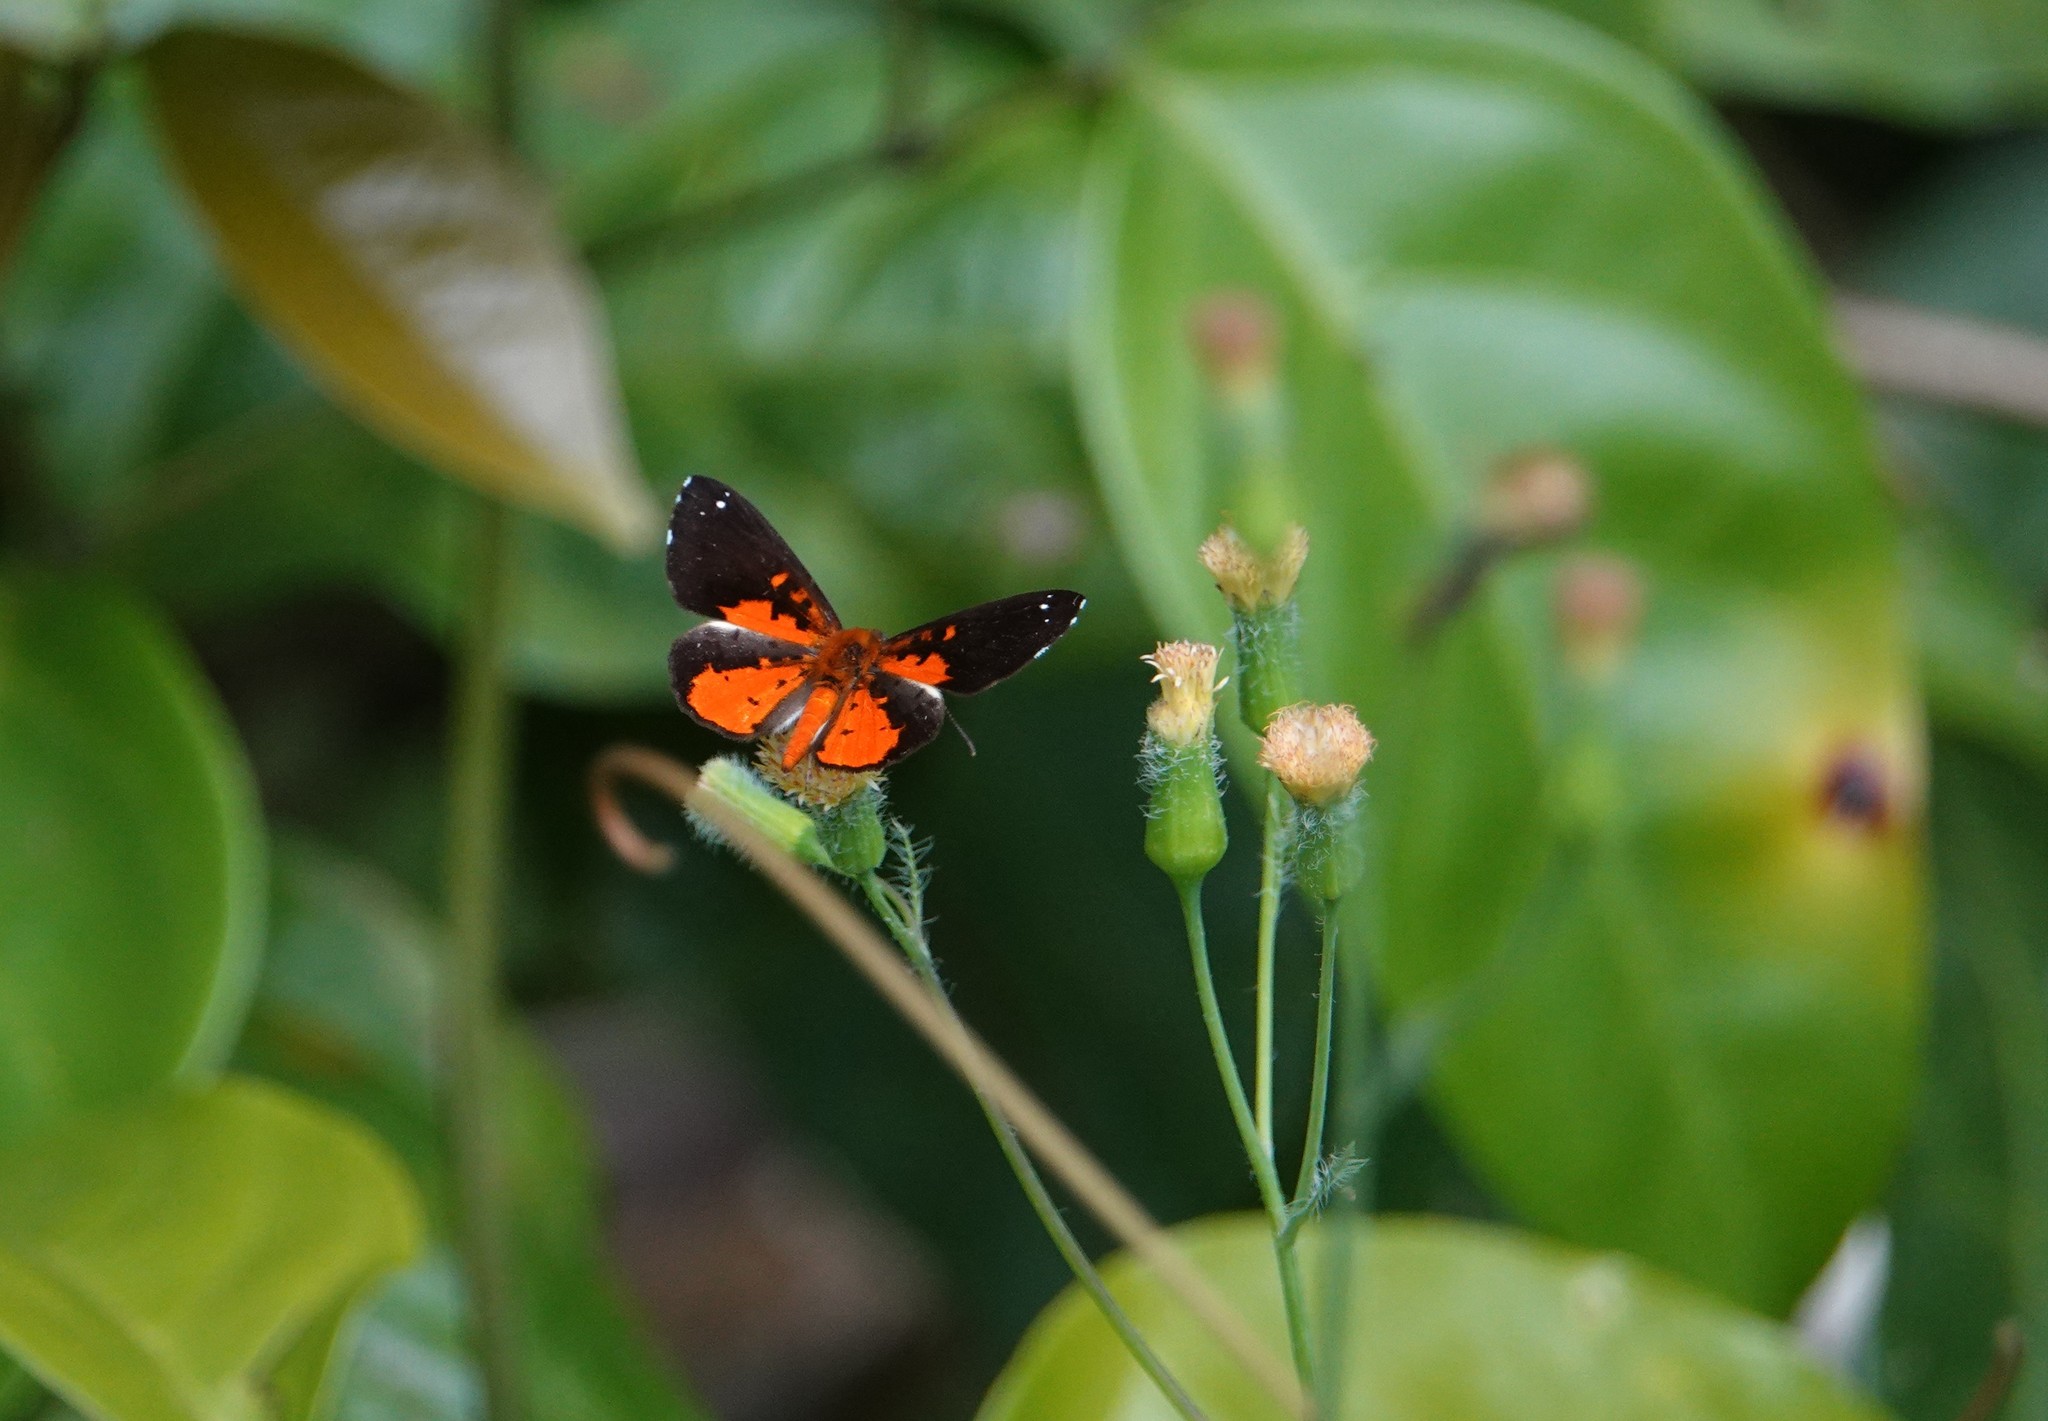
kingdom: Animalia
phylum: Arthropoda
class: Insecta
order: Lepidoptera
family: Riodinidae
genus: Polystichtis
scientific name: Polystichtis emylius
